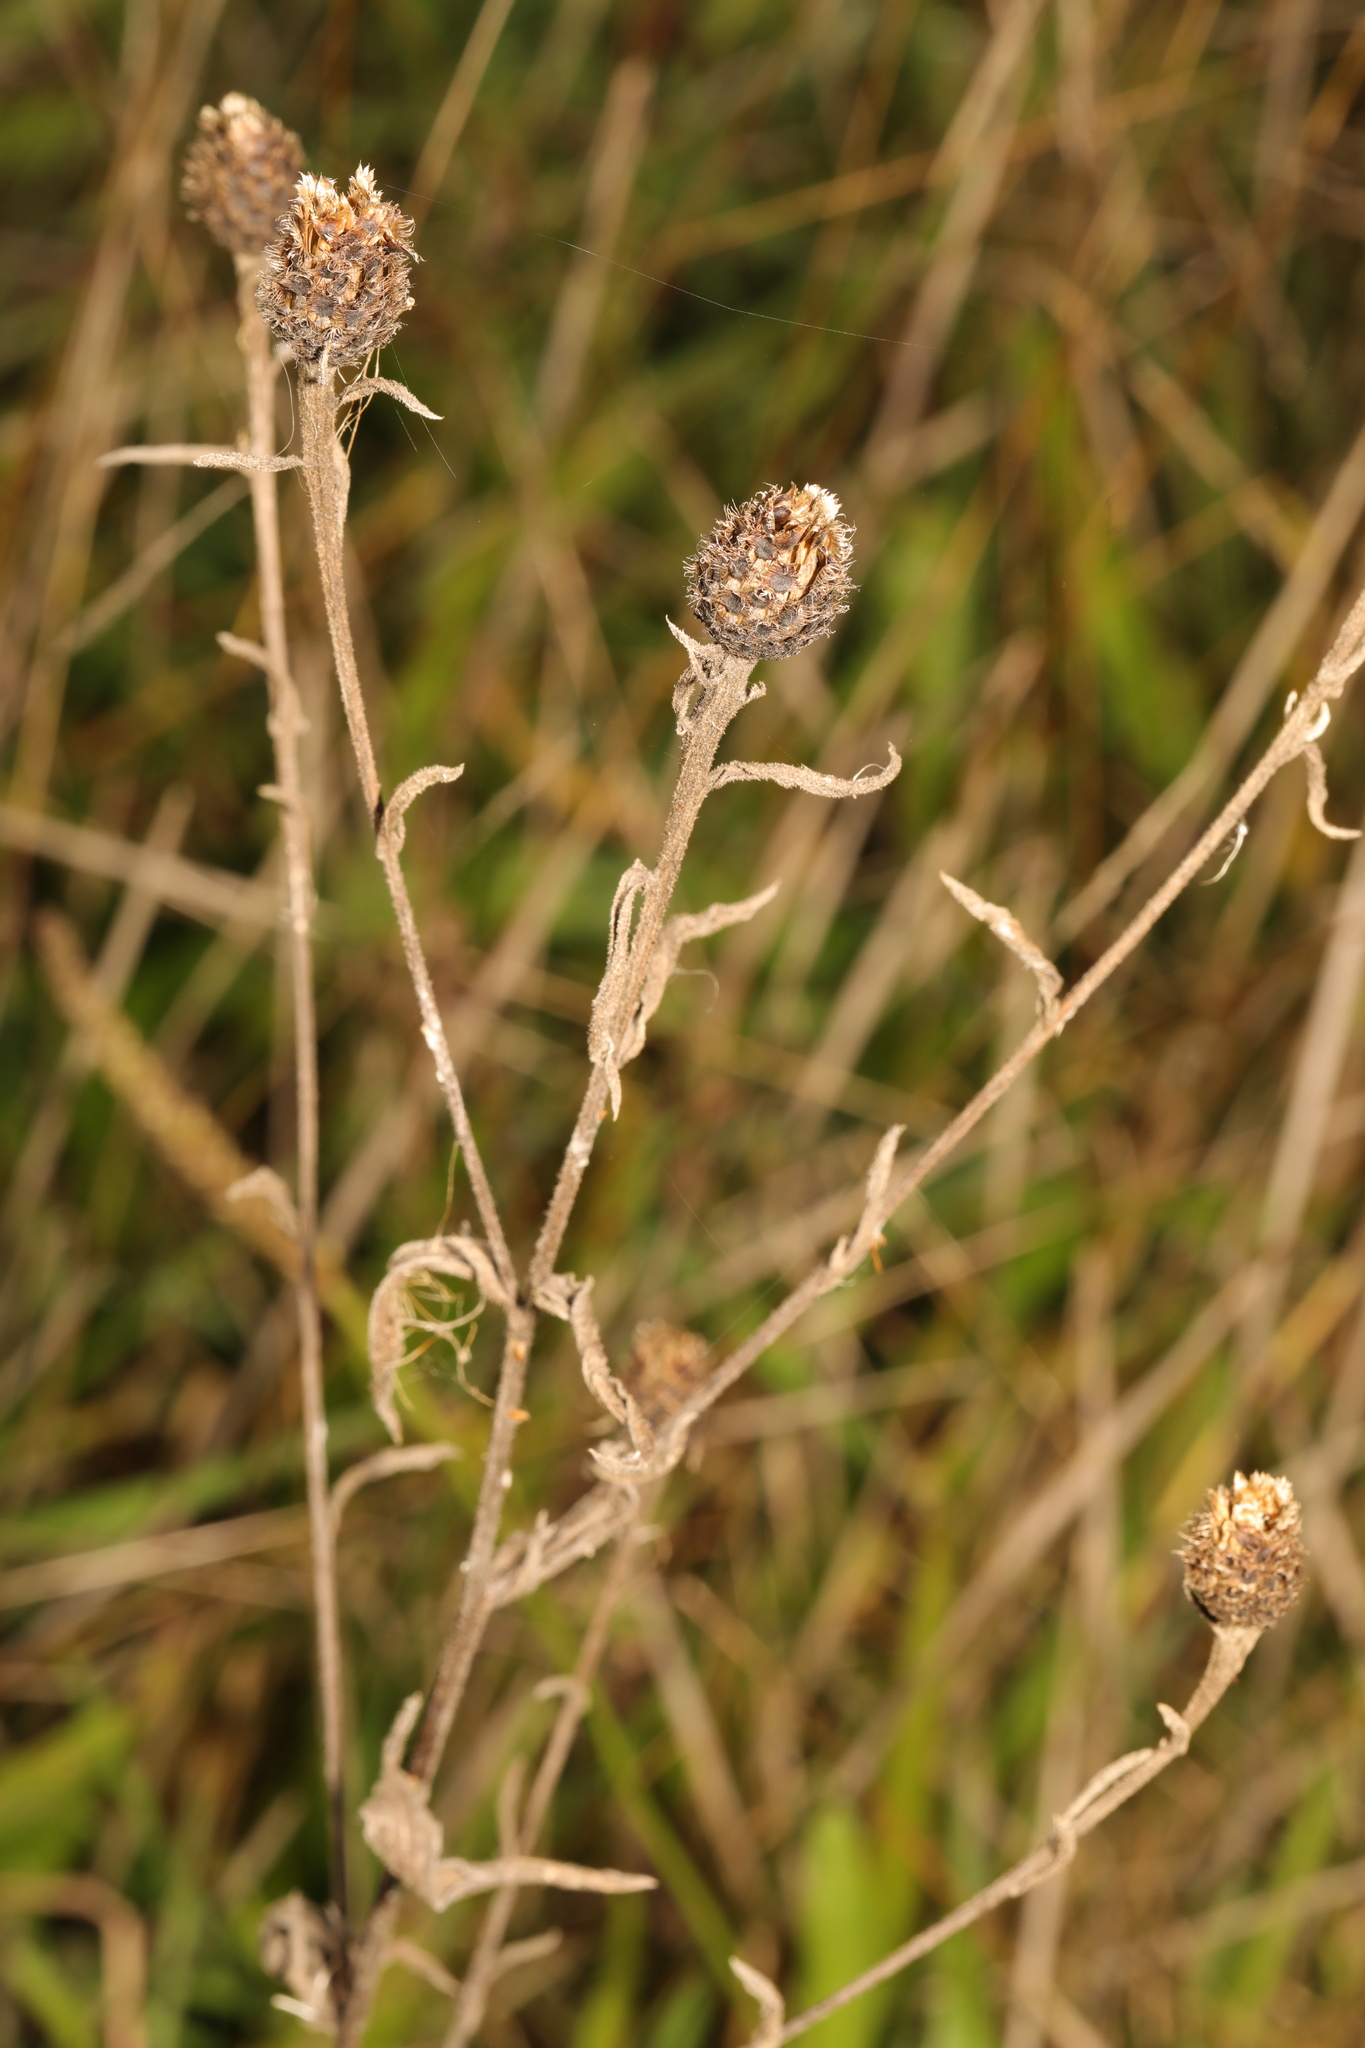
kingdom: Plantae
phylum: Tracheophyta
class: Magnoliopsida
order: Asterales
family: Asteraceae
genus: Centaurea
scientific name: Centaurea nigra
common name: Lesser knapweed
